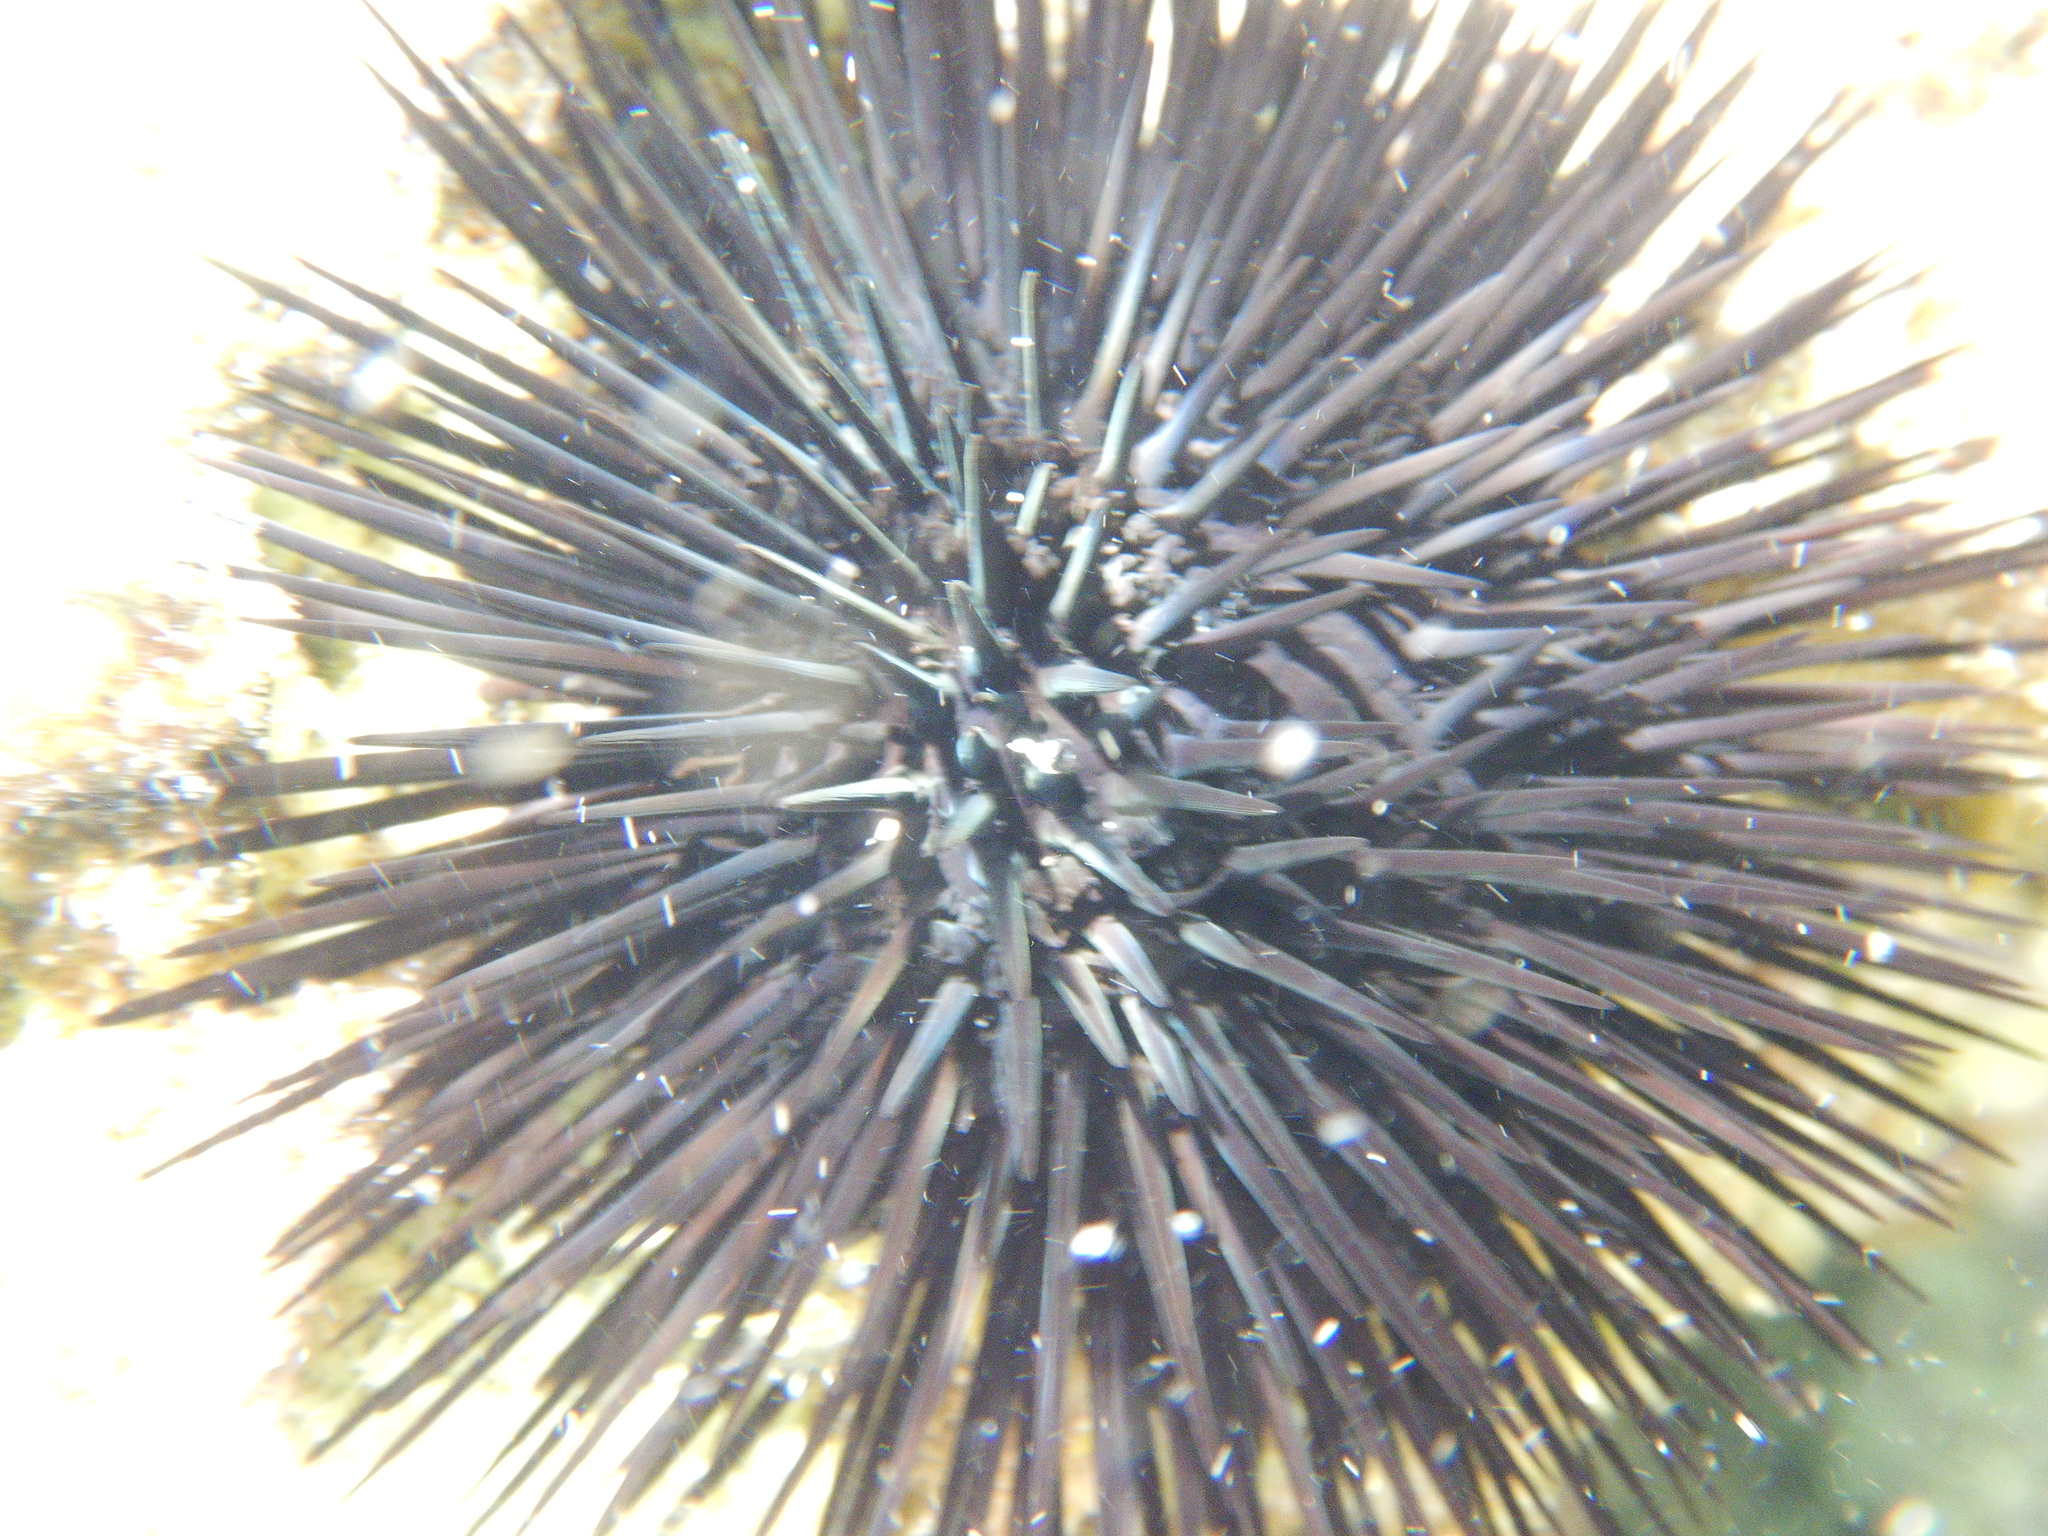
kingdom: Animalia
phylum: Echinodermata
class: Echinoidea
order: Arbacioida
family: Arbaciidae
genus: Arbacia
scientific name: Arbacia lixula
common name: Black sea urchin
